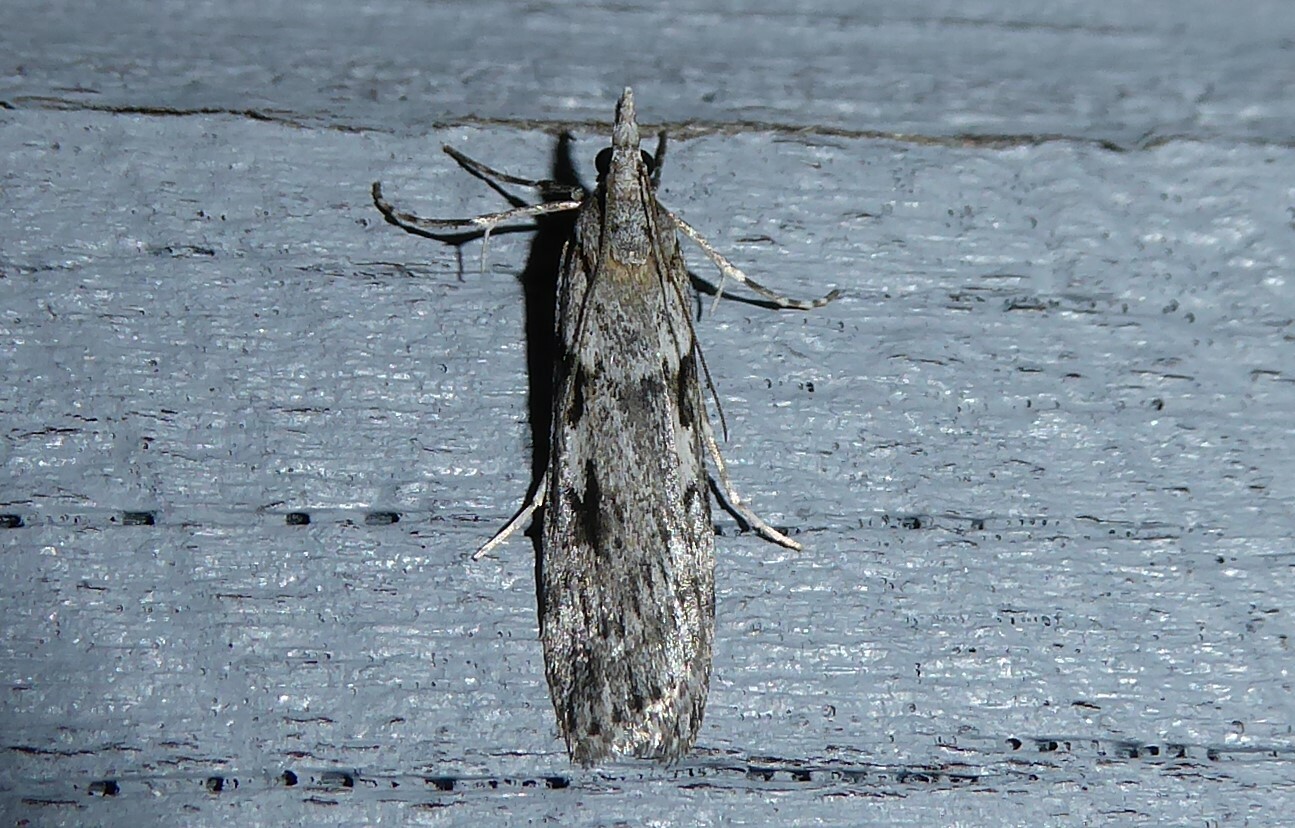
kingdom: Animalia
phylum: Arthropoda
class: Insecta
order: Lepidoptera
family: Crambidae
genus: Scoparia
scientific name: Scoparia halopis
